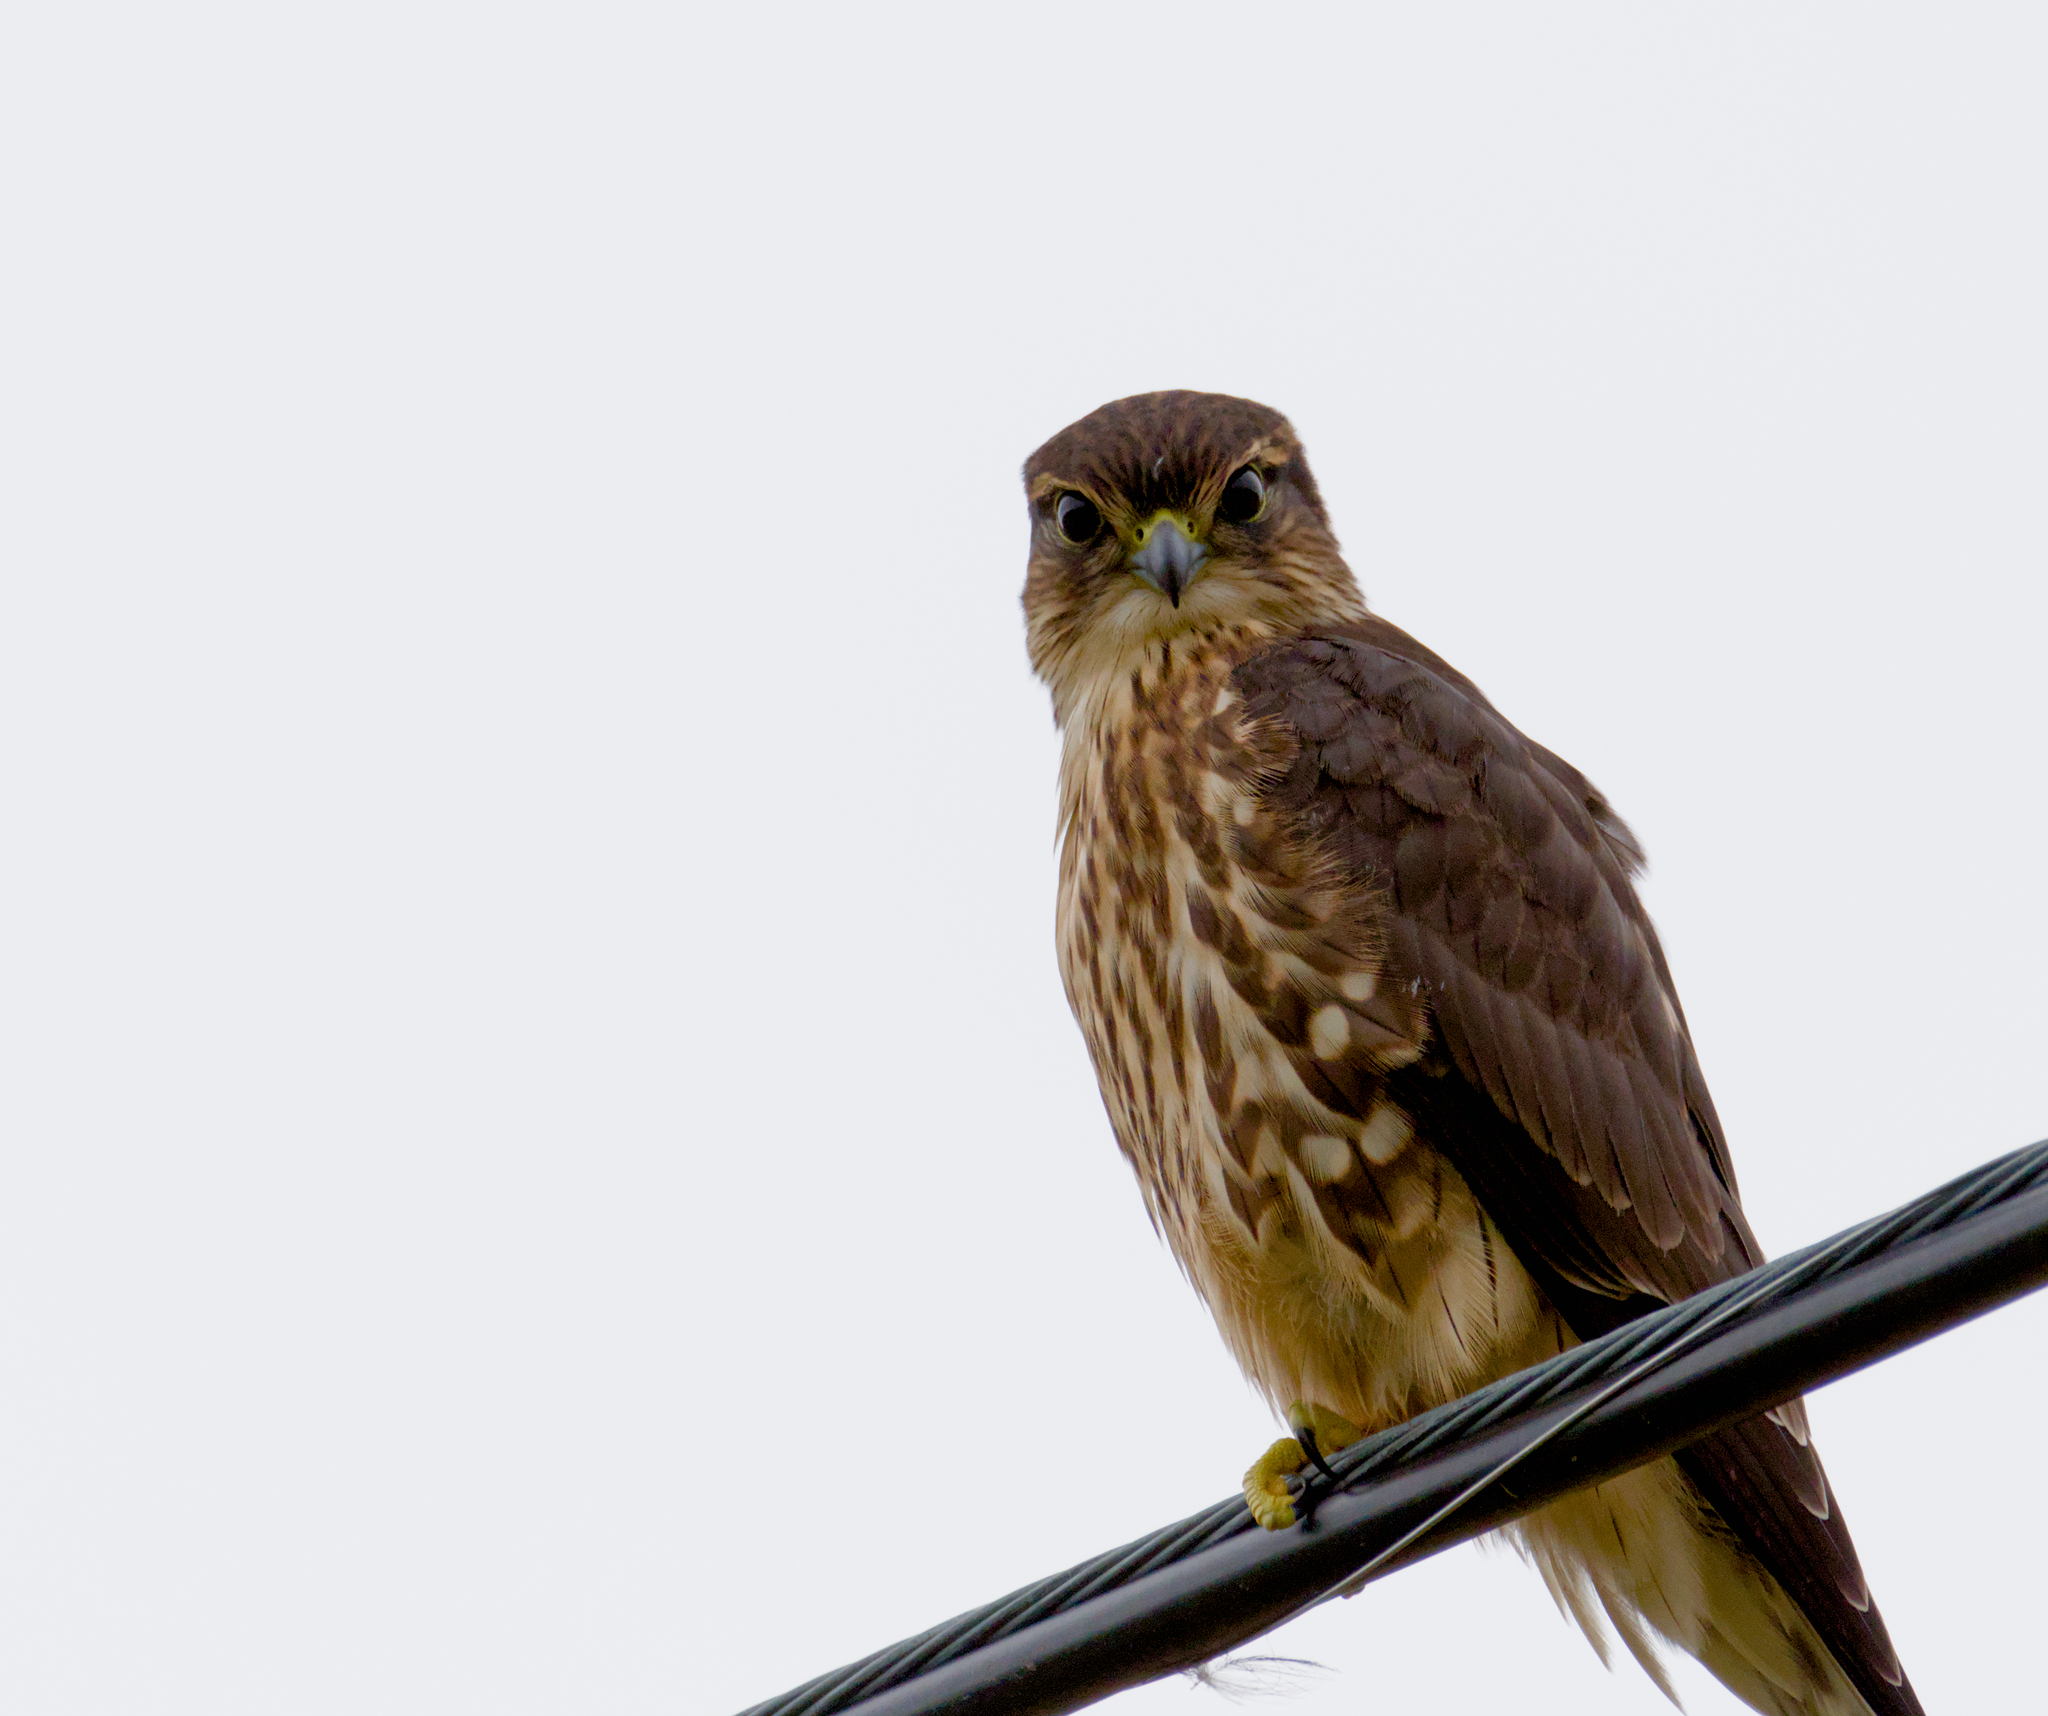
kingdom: Animalia
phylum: Chordata
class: Aves
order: Falconiformes
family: Falconidae
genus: Falco
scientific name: Falco columbarius
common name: Merlin
